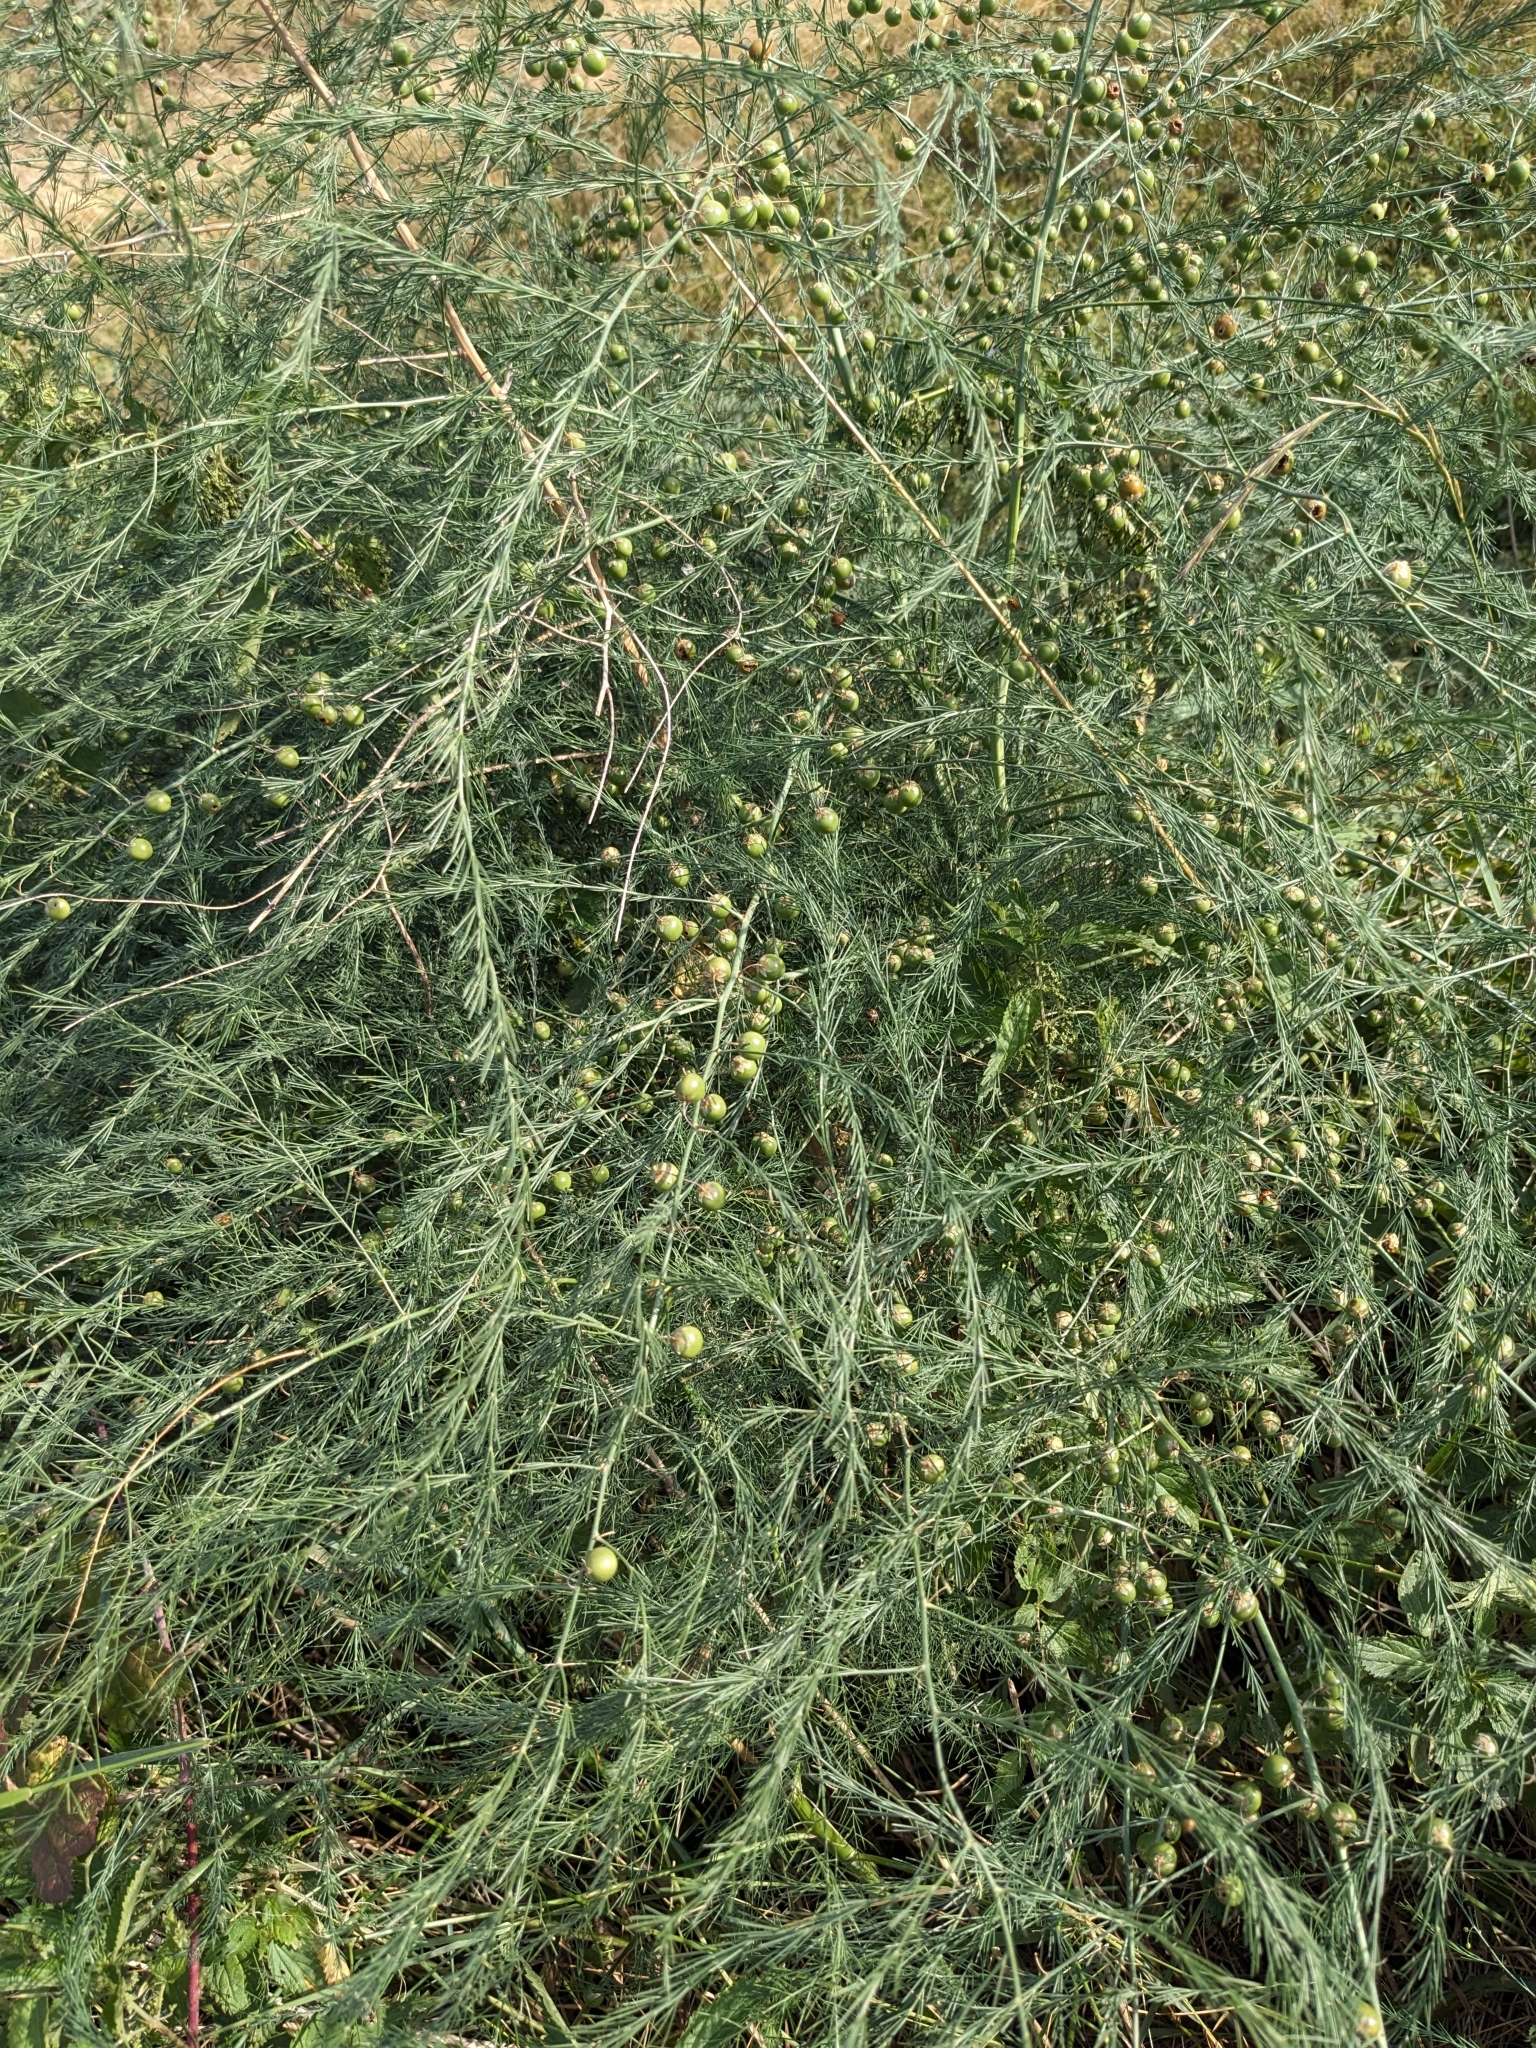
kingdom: Plantae
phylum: Tracheophyta
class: Liliopsida
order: Asparagales
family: Asparagaceae
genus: Asparagus
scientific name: Asparagus officinalis
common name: Garden asparagus
